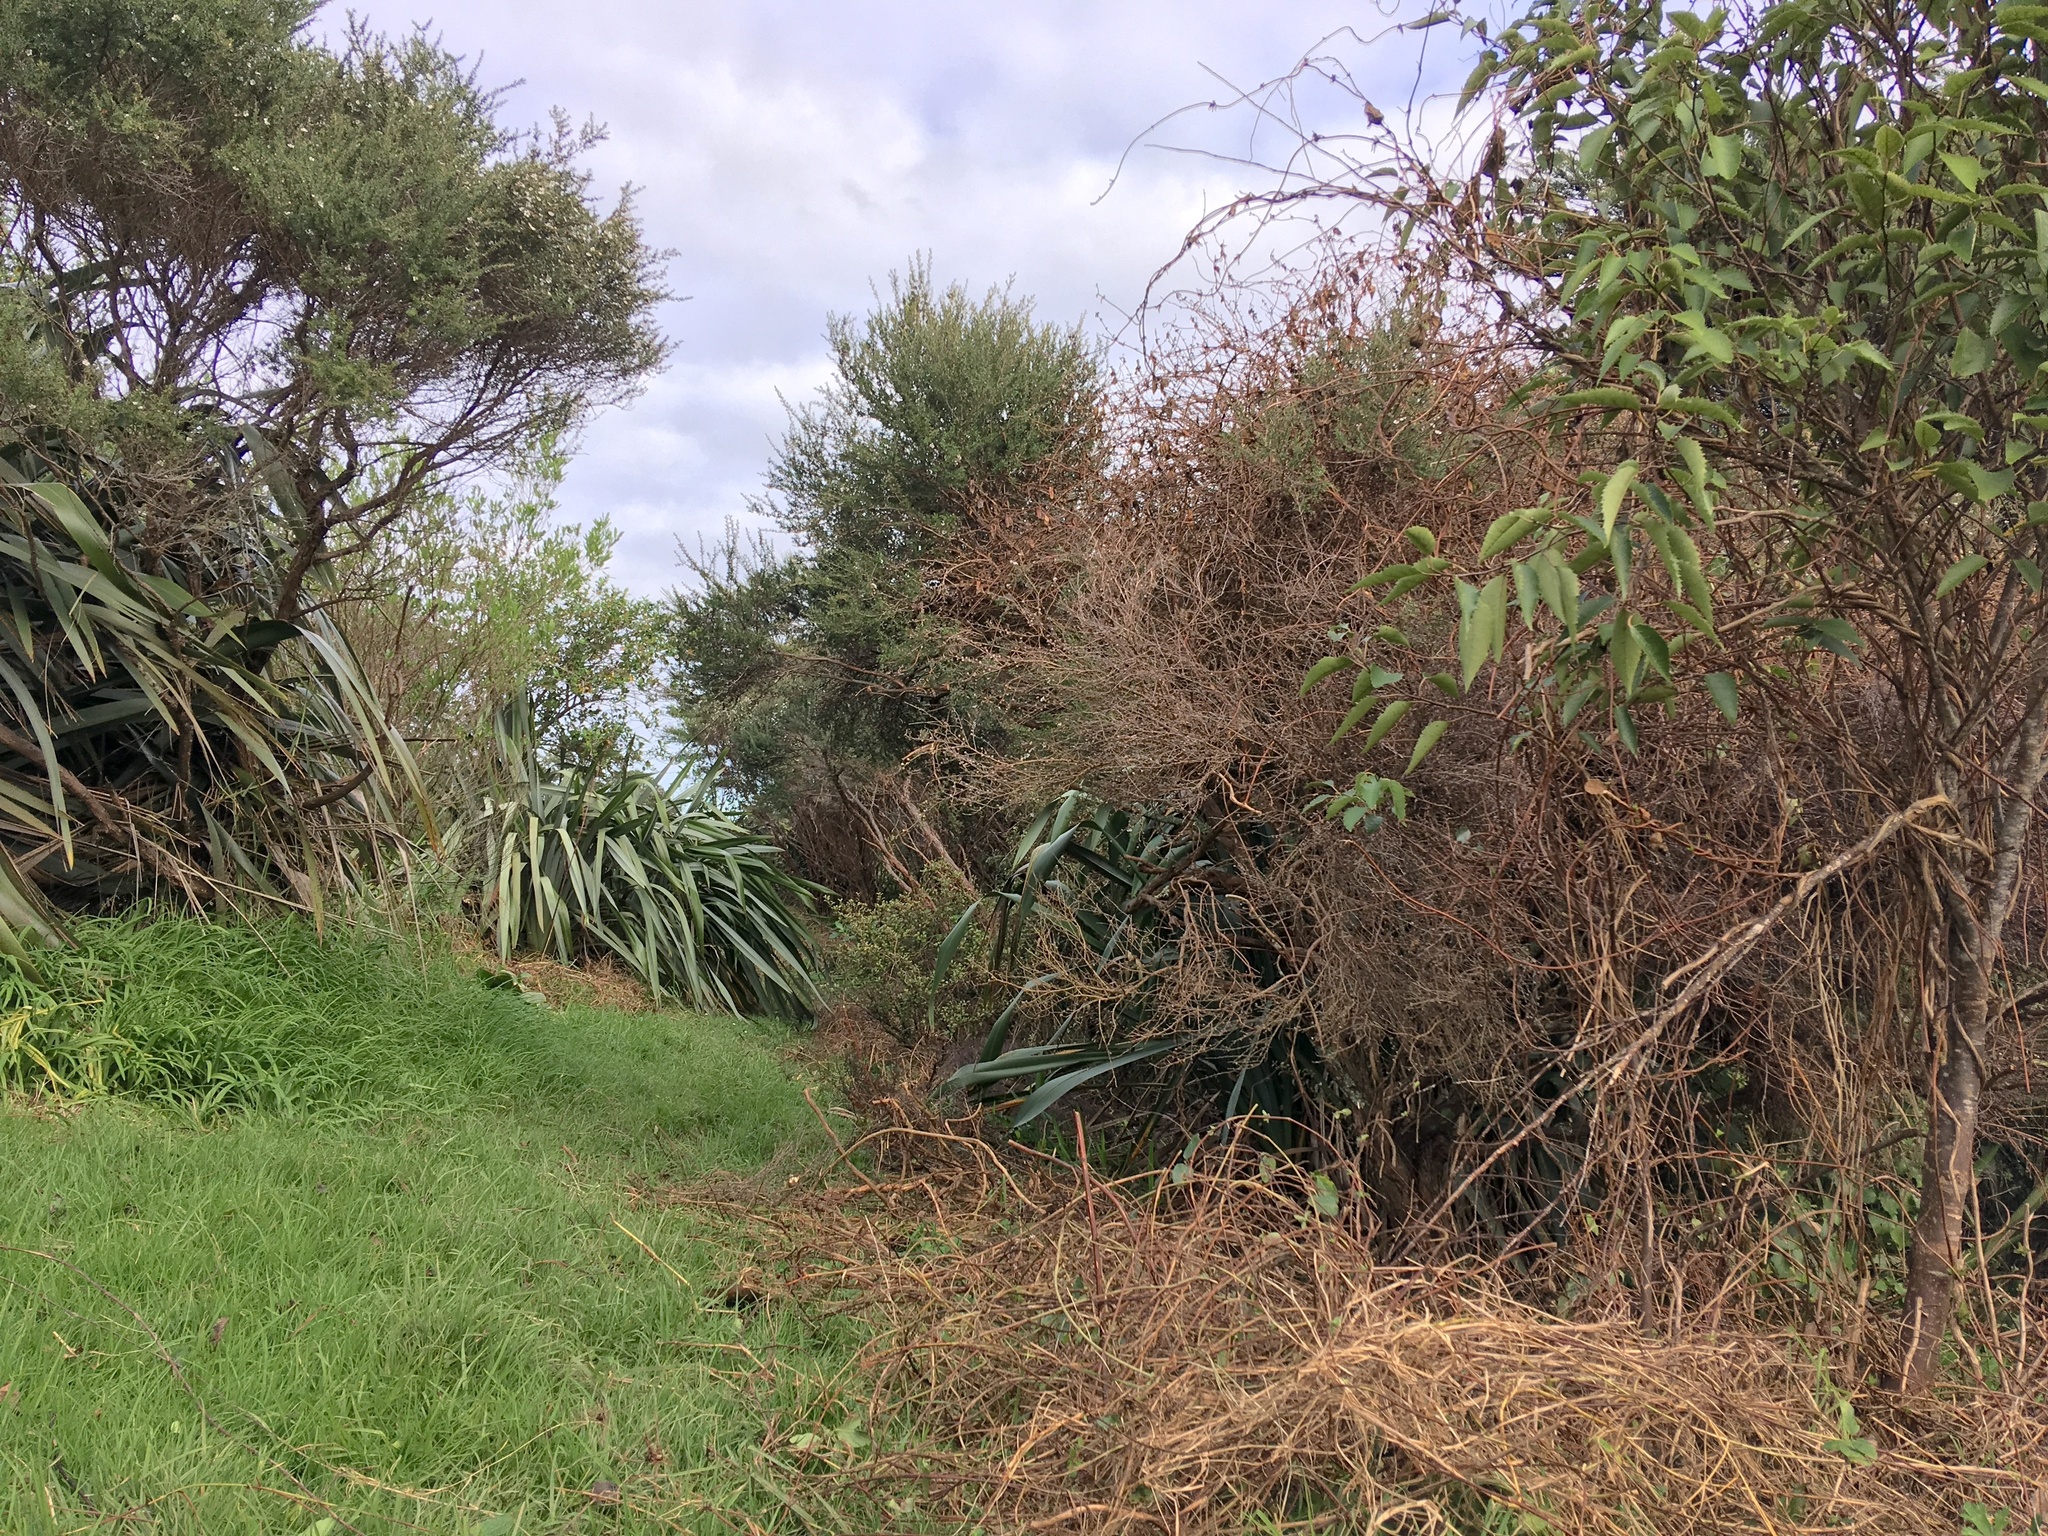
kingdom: Plantae
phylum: Tracheophyta
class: Liliopsida
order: Poales
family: Poaceae
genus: Cenchrus
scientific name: Cenchrus clandestinus
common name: Kikuyugrass
